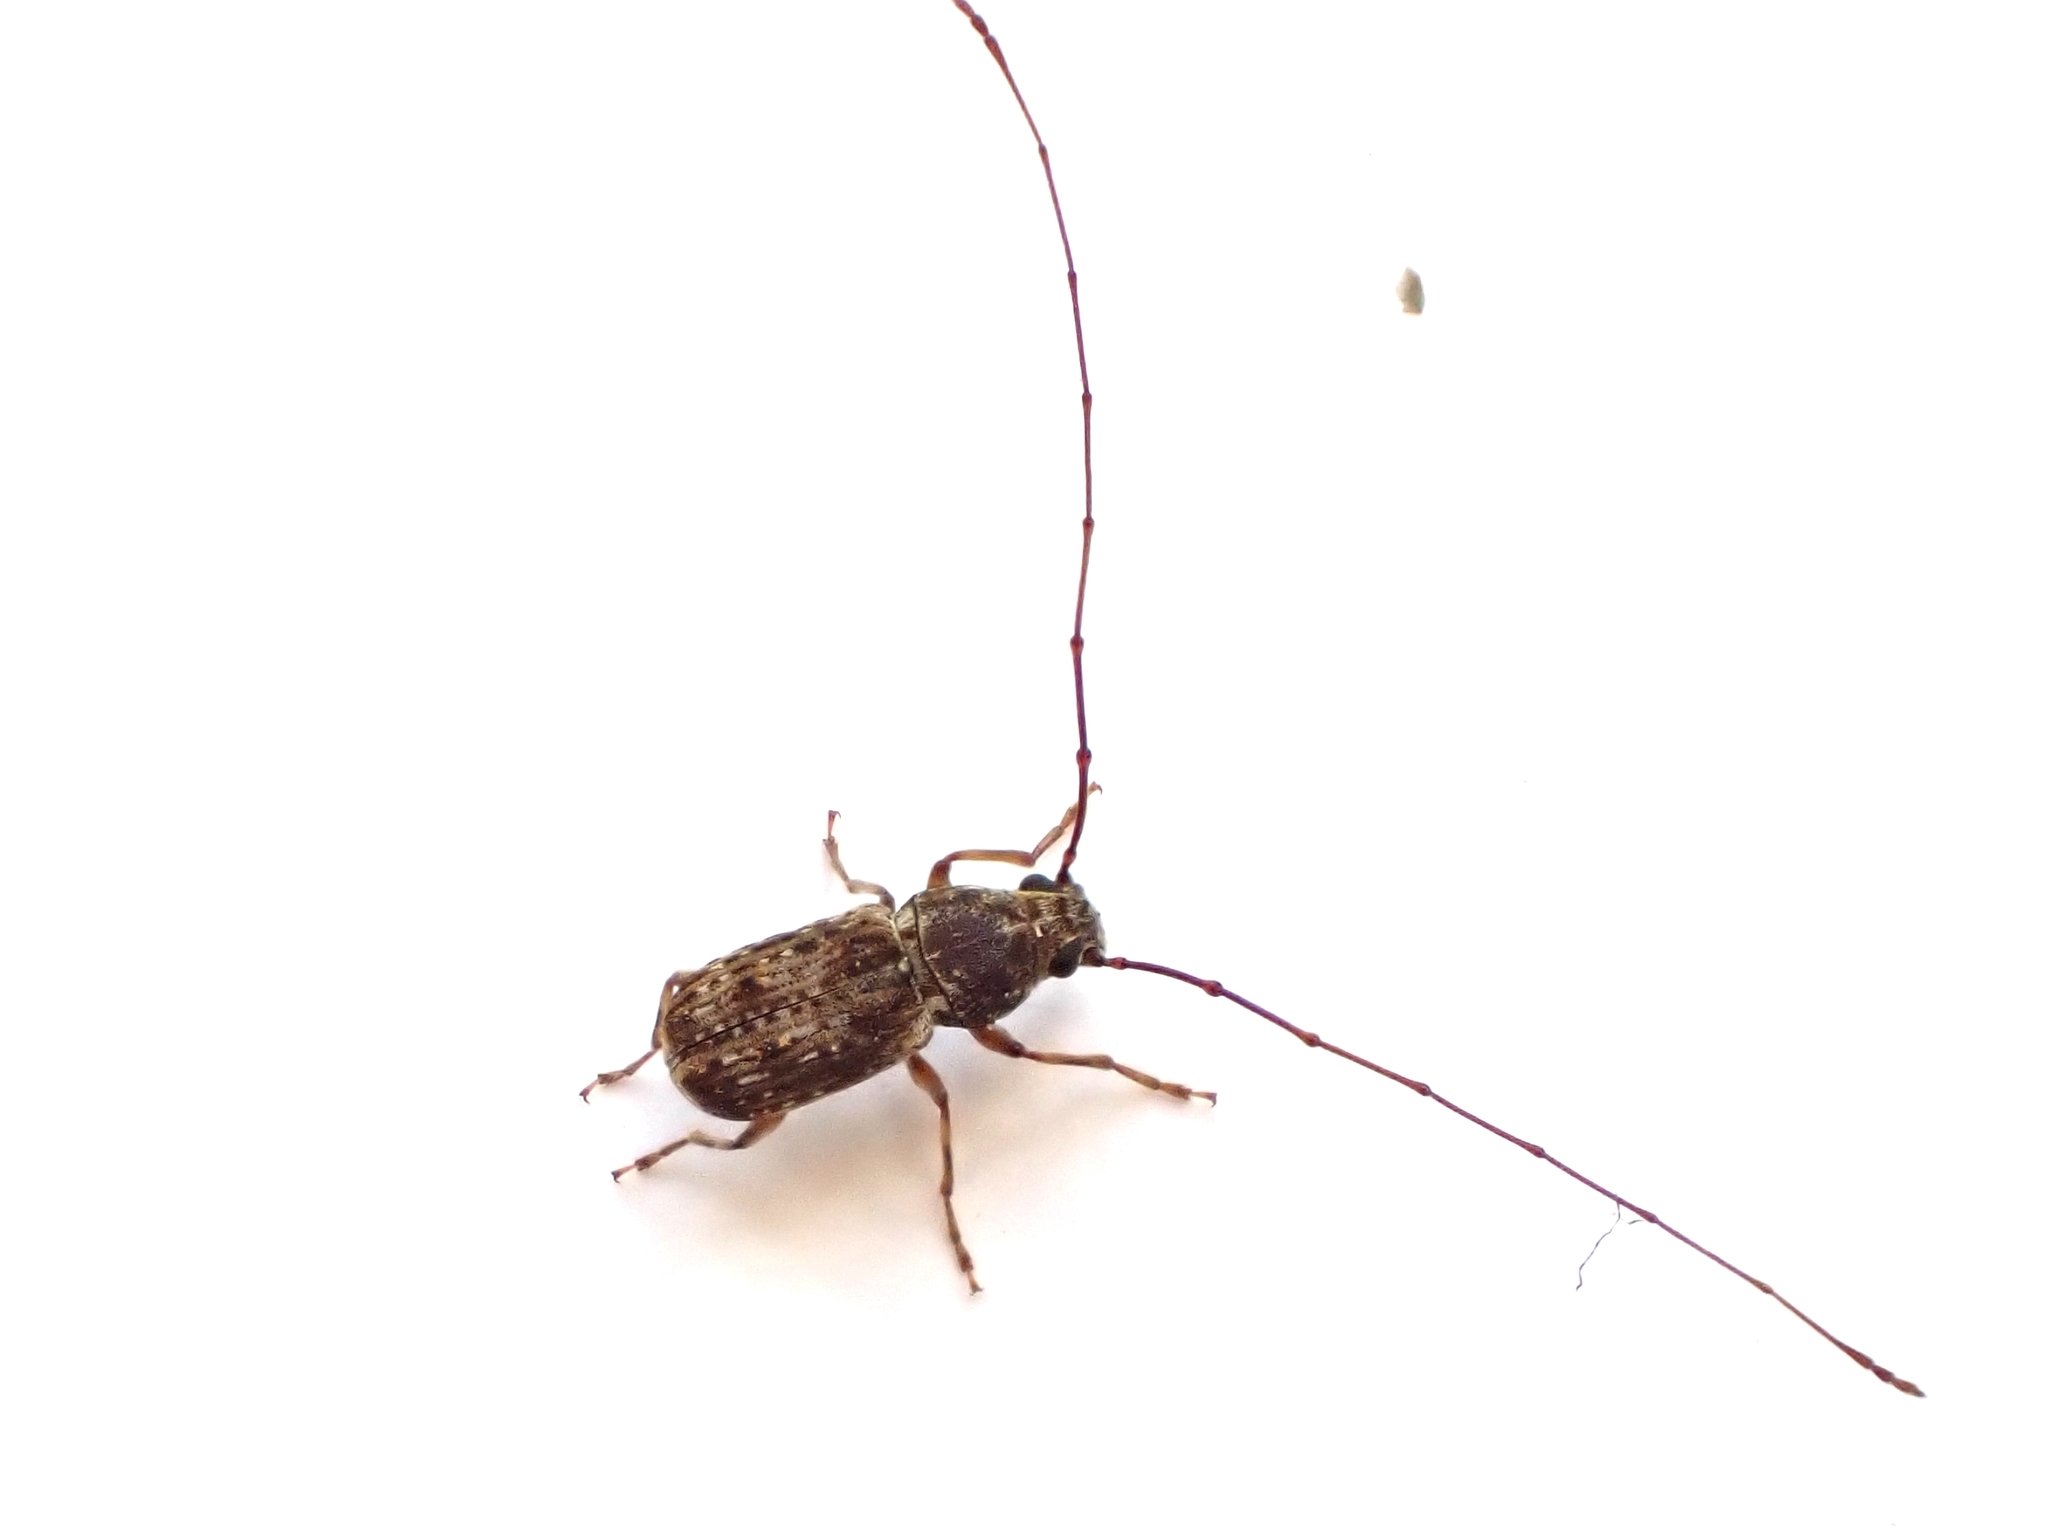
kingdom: Animalia
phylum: Arthropoda
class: Insecta
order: Coleoptera
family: Anthribidae
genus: Phymatus
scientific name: Phymatus
